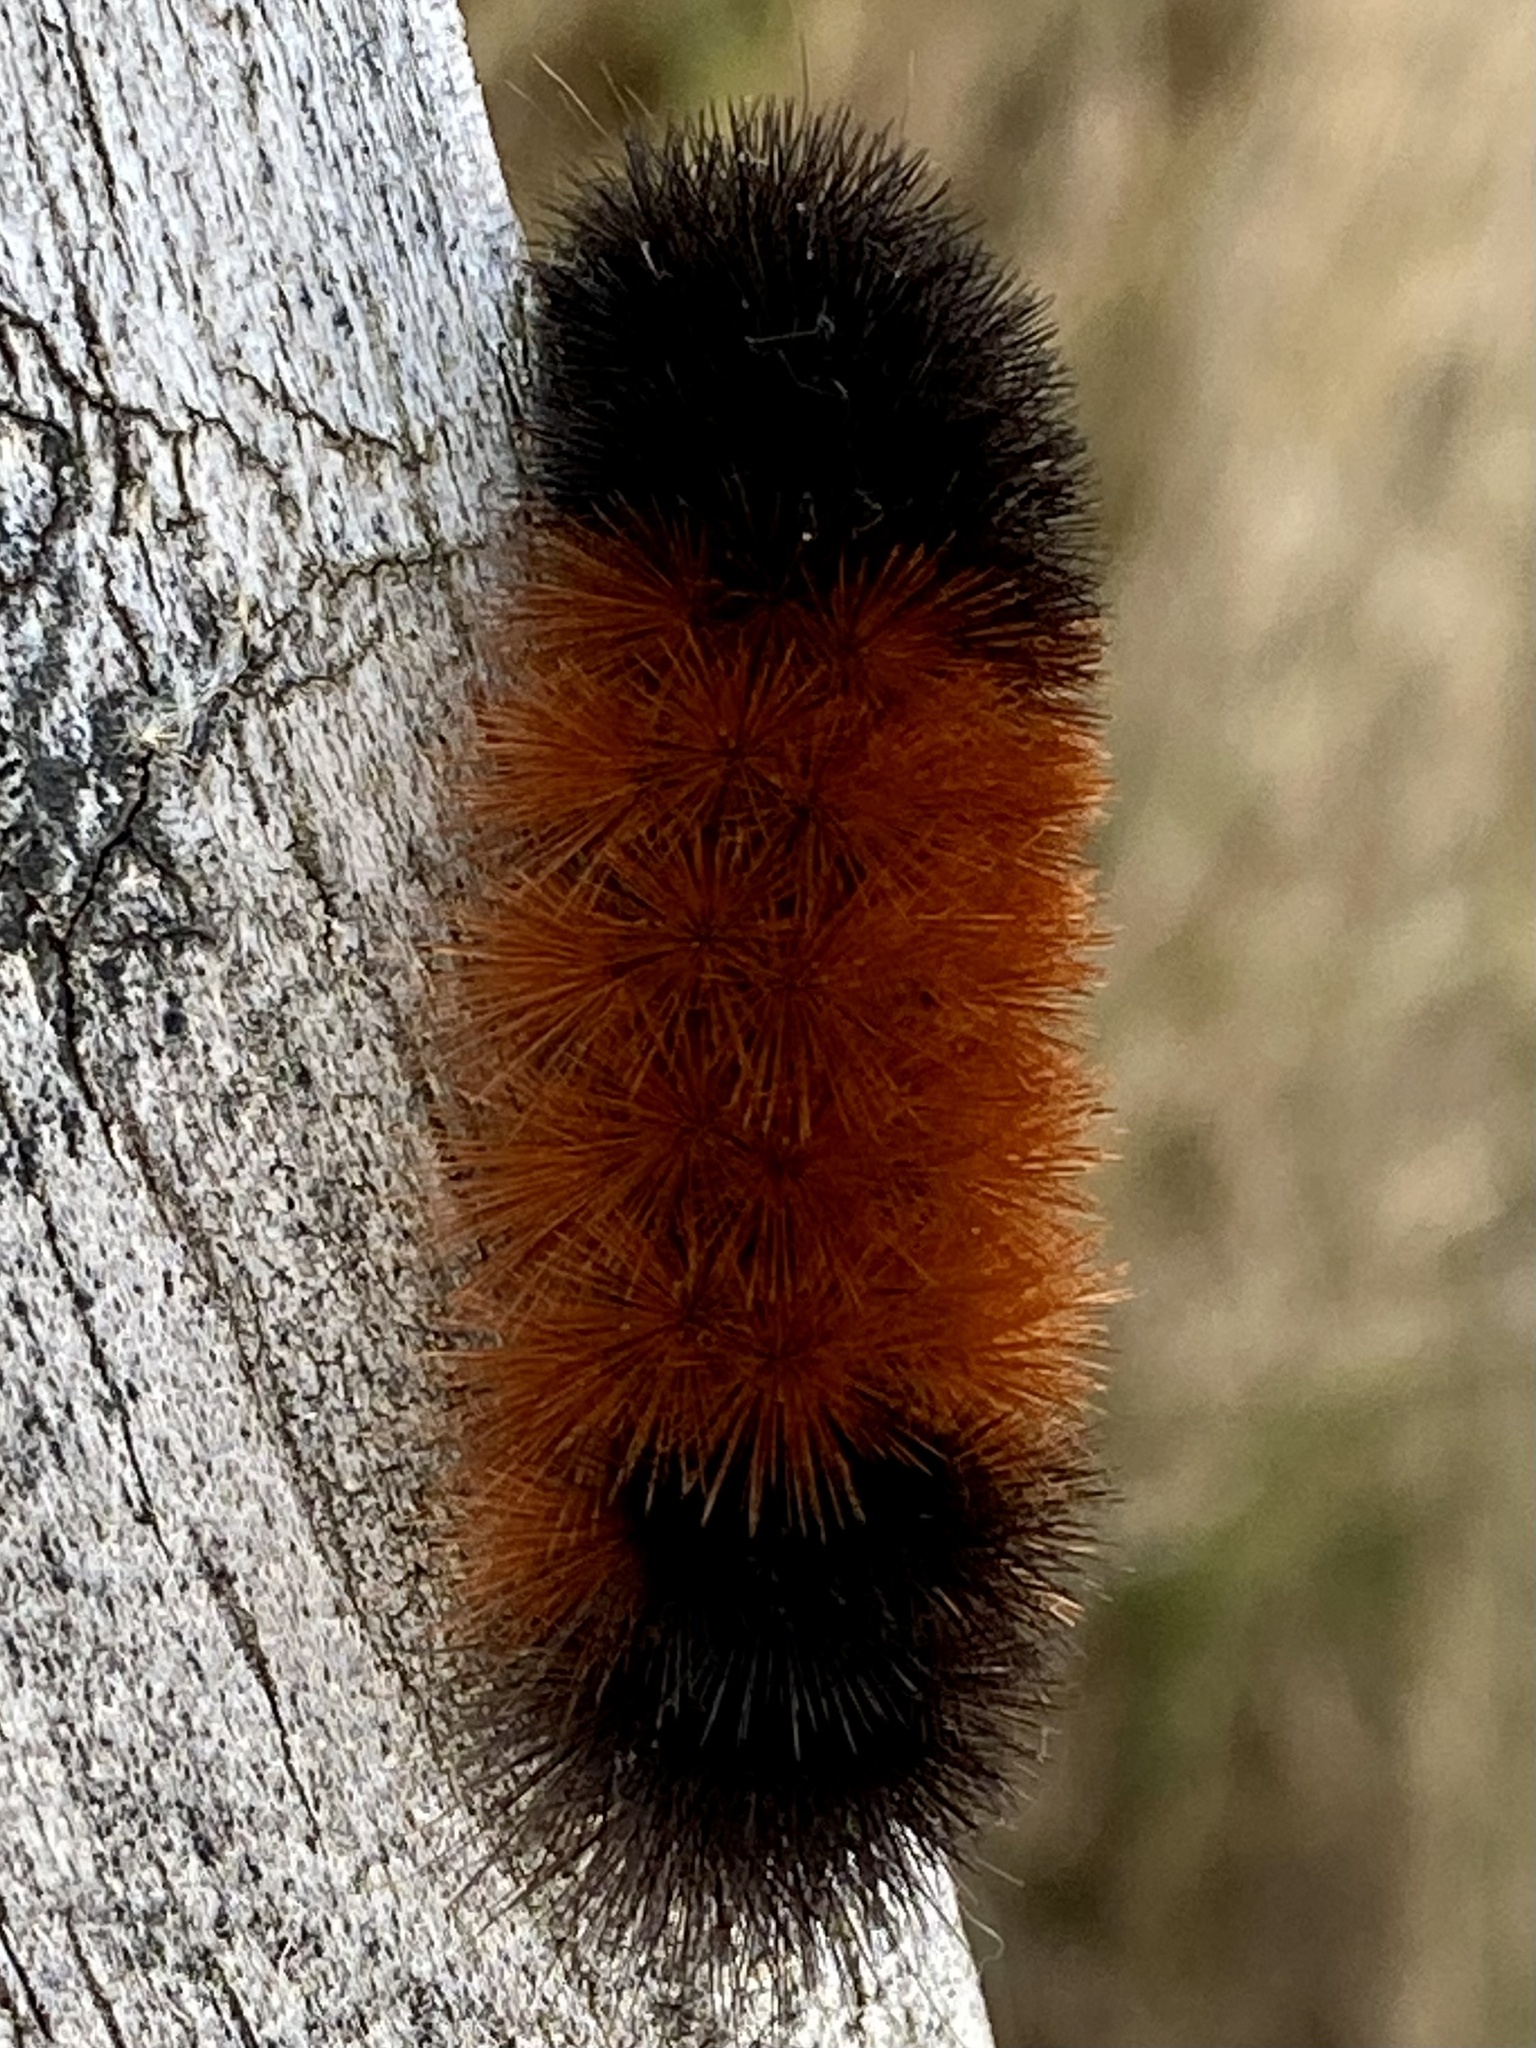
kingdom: Animalia
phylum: Arthropoda
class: Insecta
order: Lepidoptera
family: Erebidae
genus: Pyrrharctia
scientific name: Pyrrharctia isabella
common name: Isabella tiger moth
